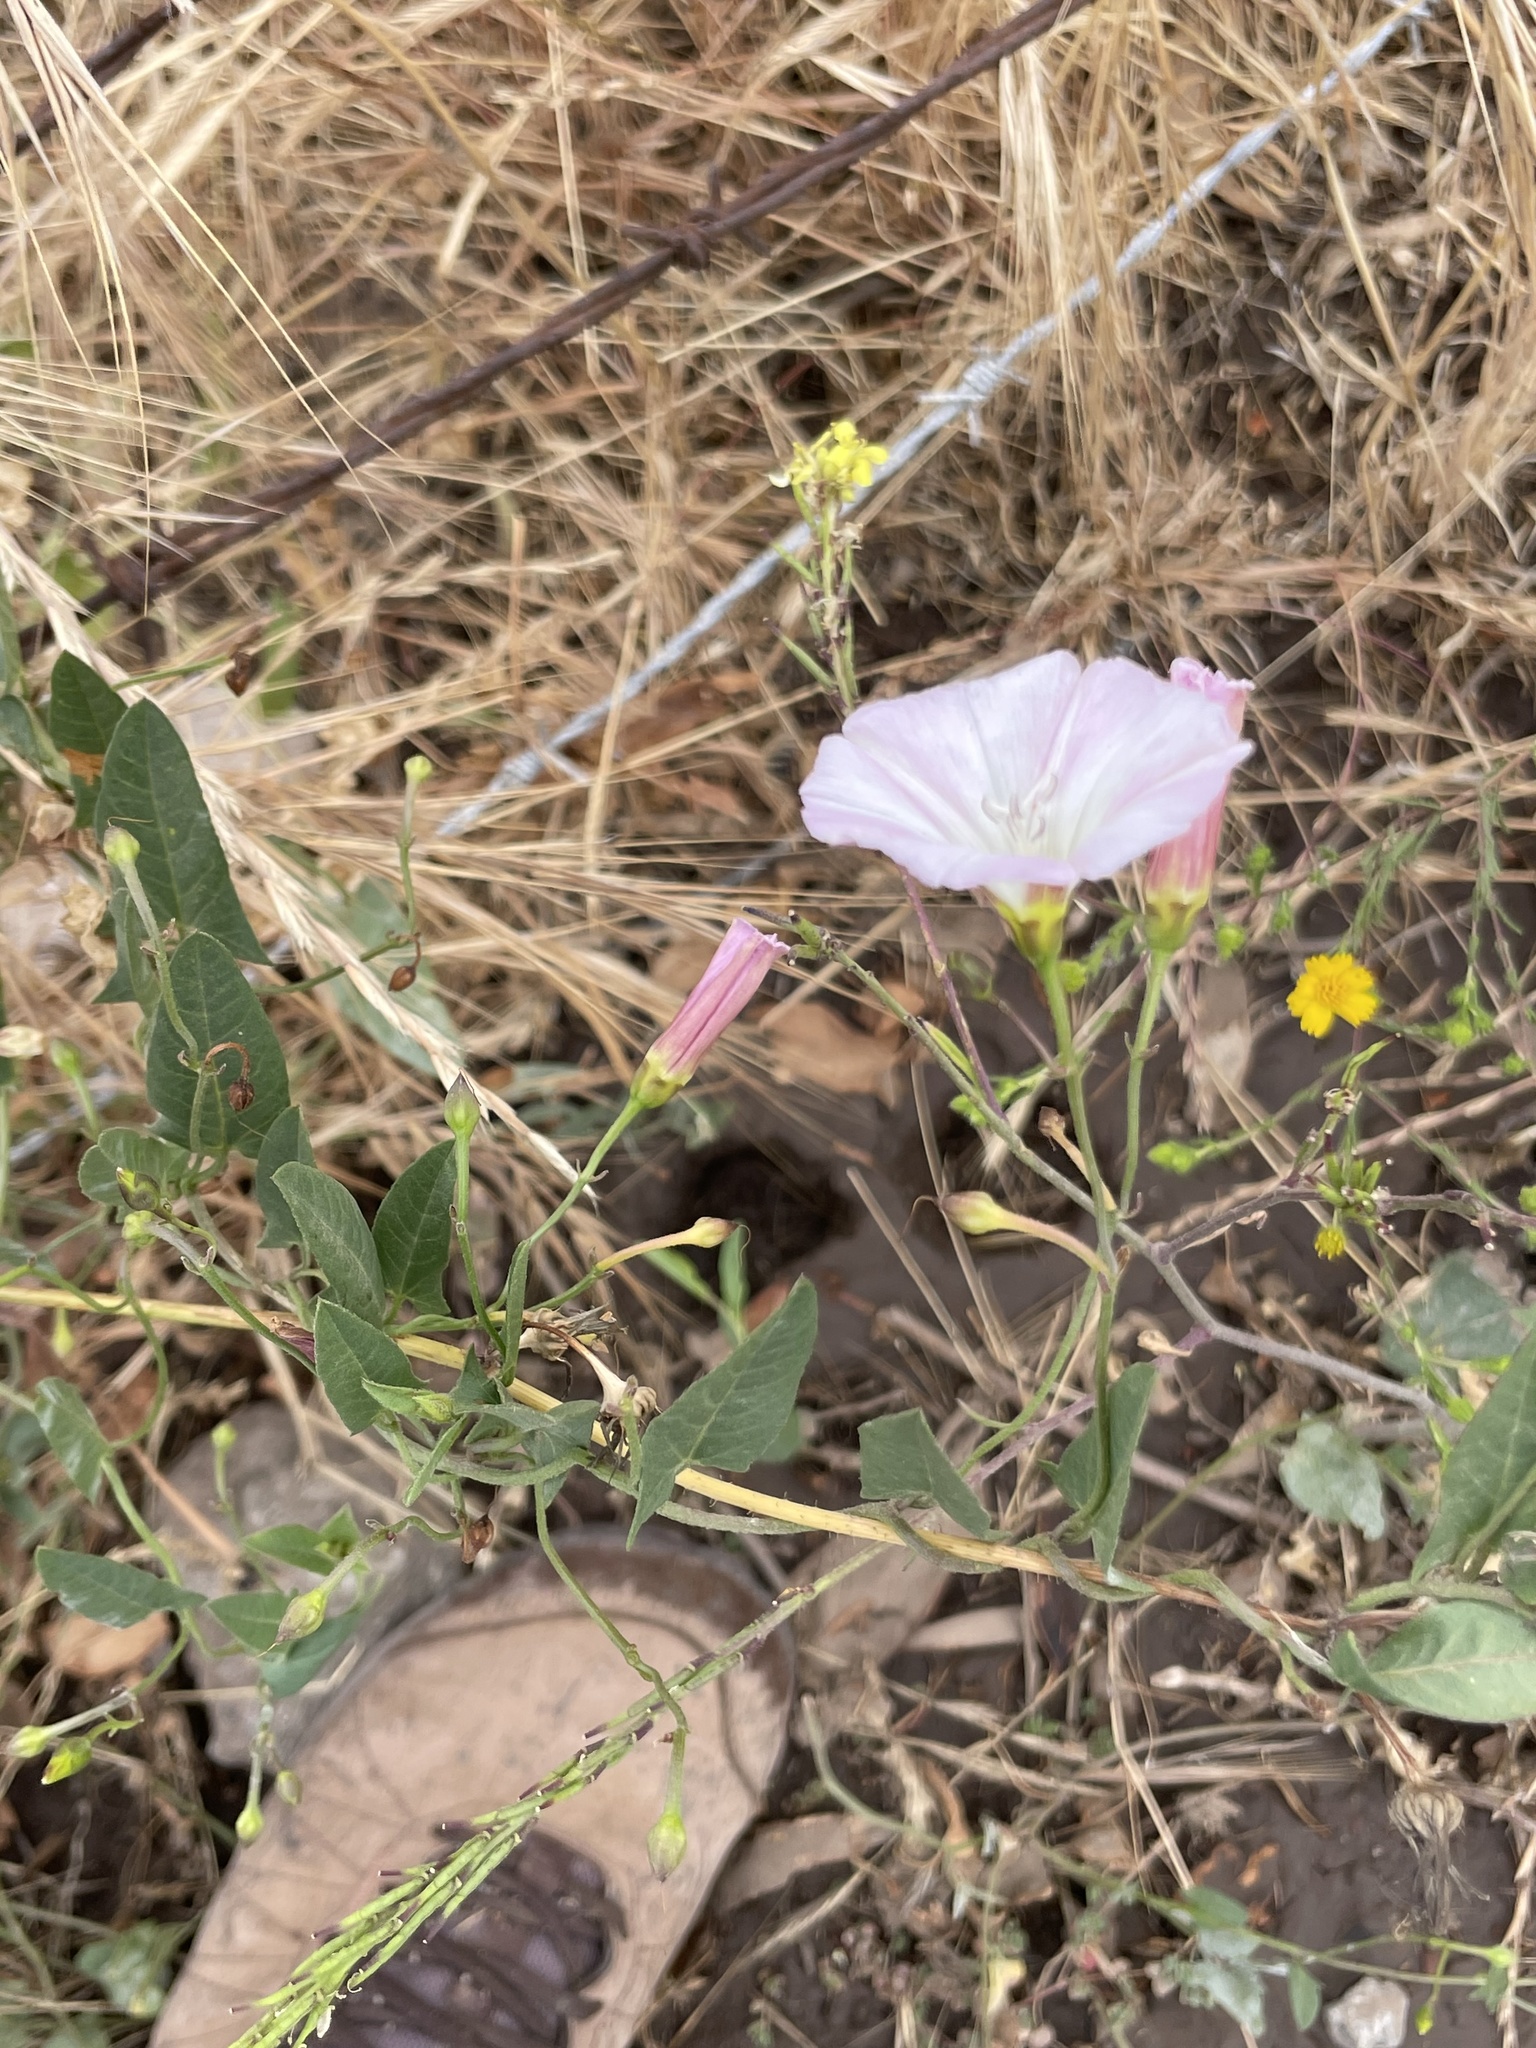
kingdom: Plantae
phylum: Tracheophyta
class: Magnoliopsida
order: Solanales
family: Convolvulaceae
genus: Convolvulus
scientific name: Convolvulus arvensis
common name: Field bindweed
